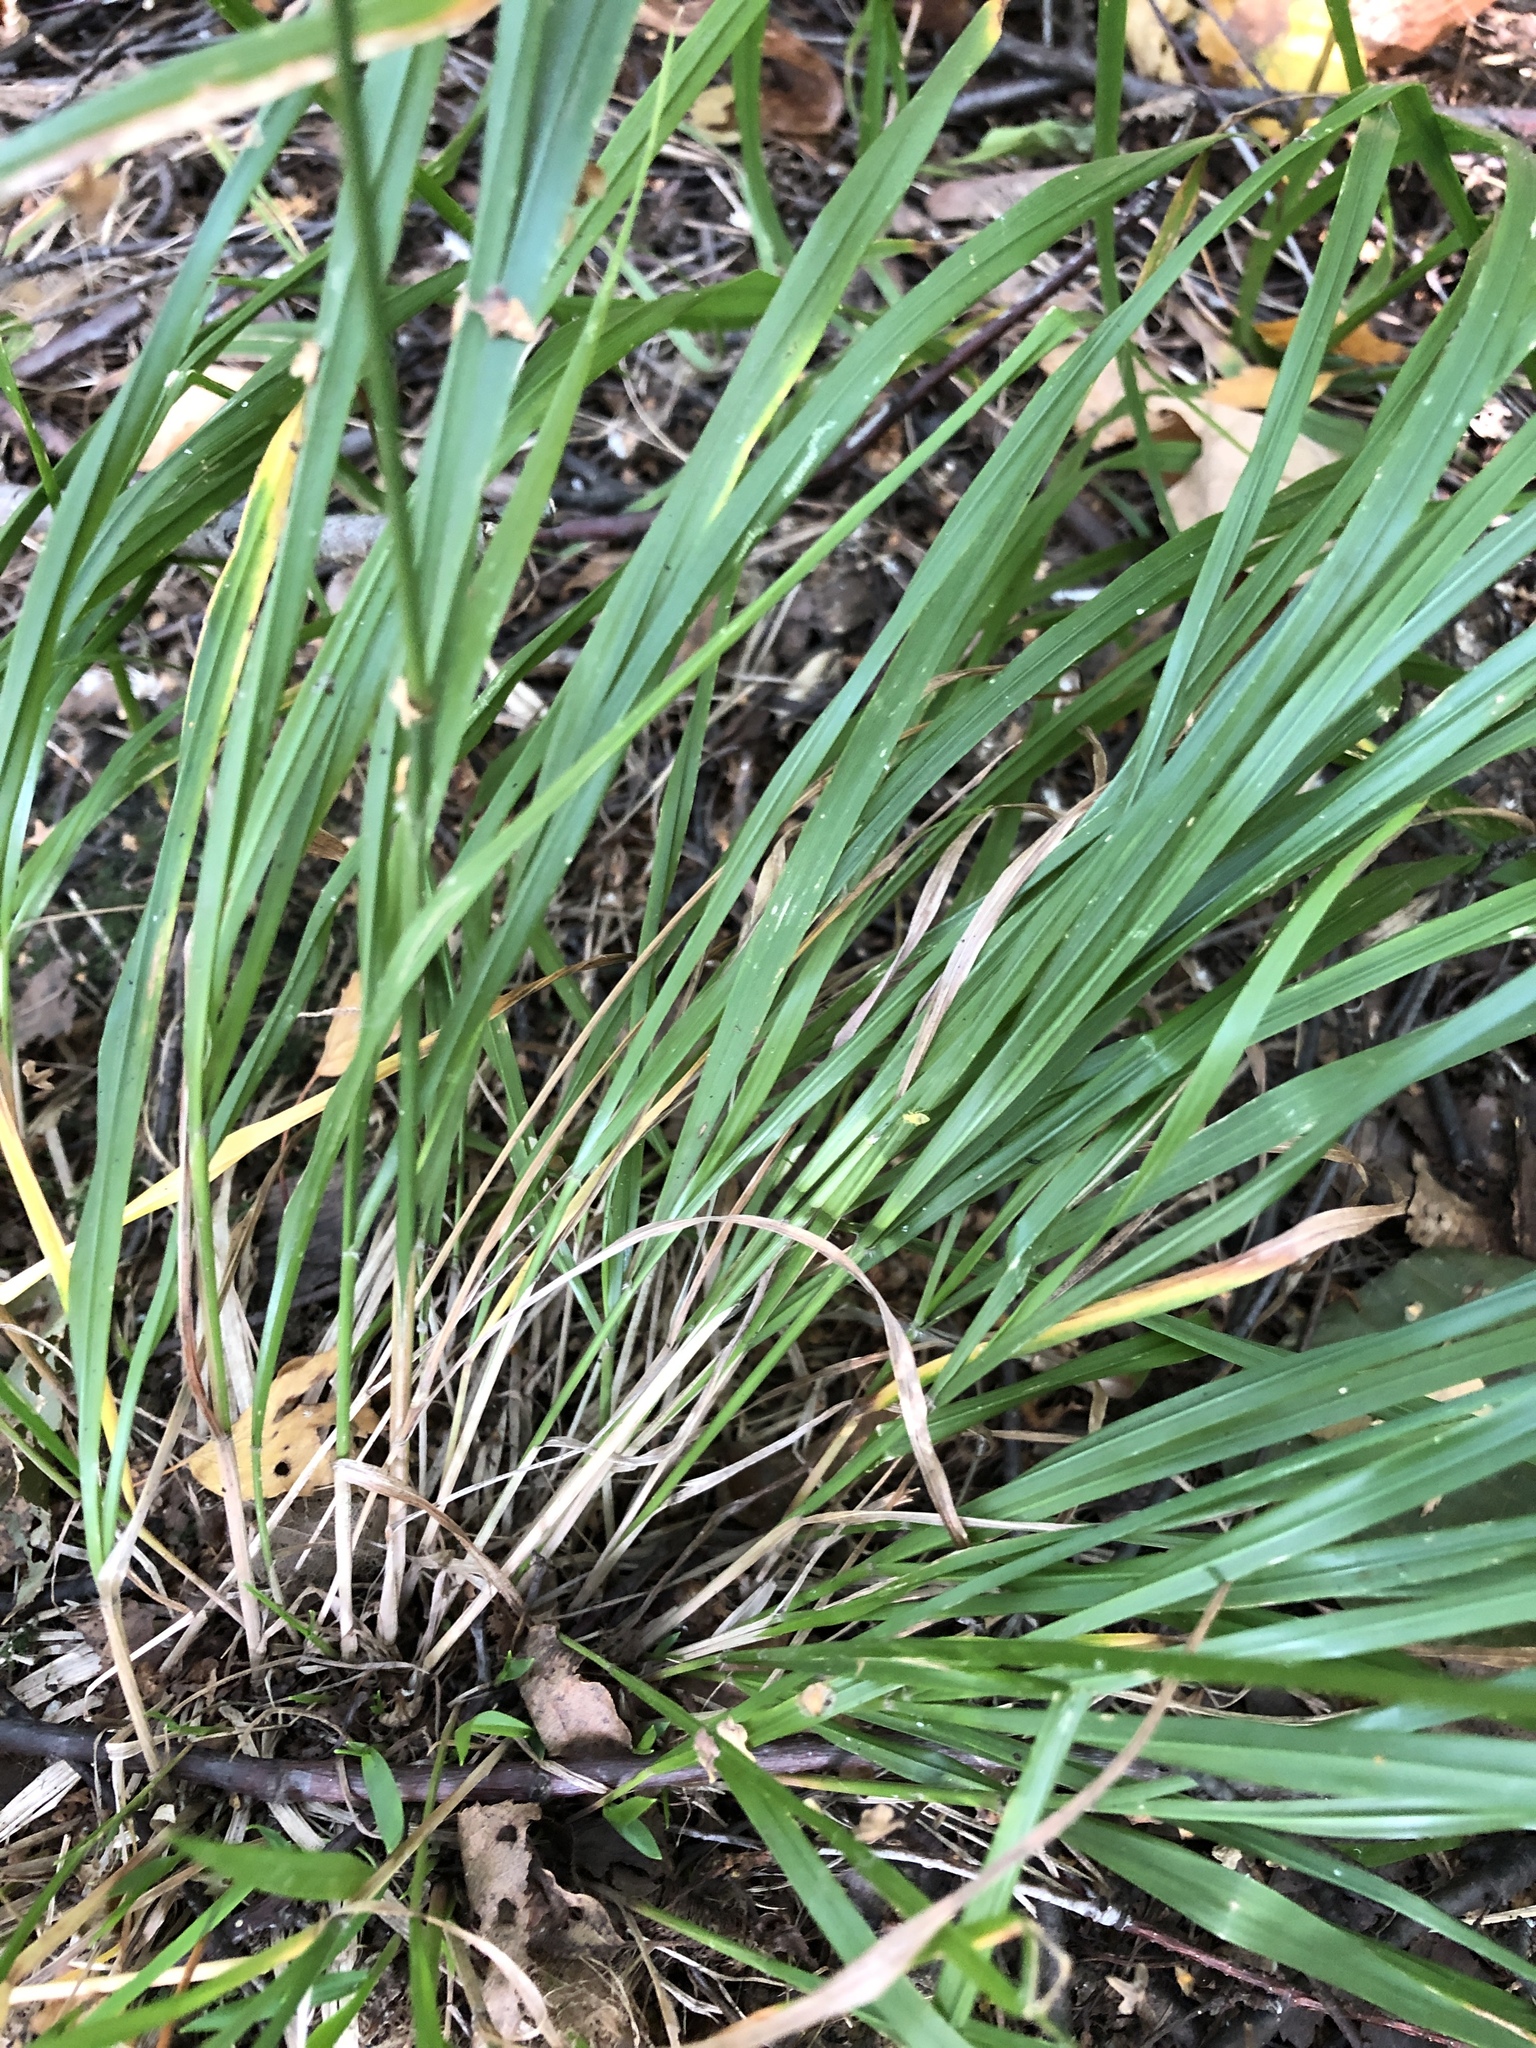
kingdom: Plantae
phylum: Tracheophyta
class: Liliopsida
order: Poales
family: Poaceae
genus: Calamagrostis
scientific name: Calamagrostis arundinacea
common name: Metskastik
